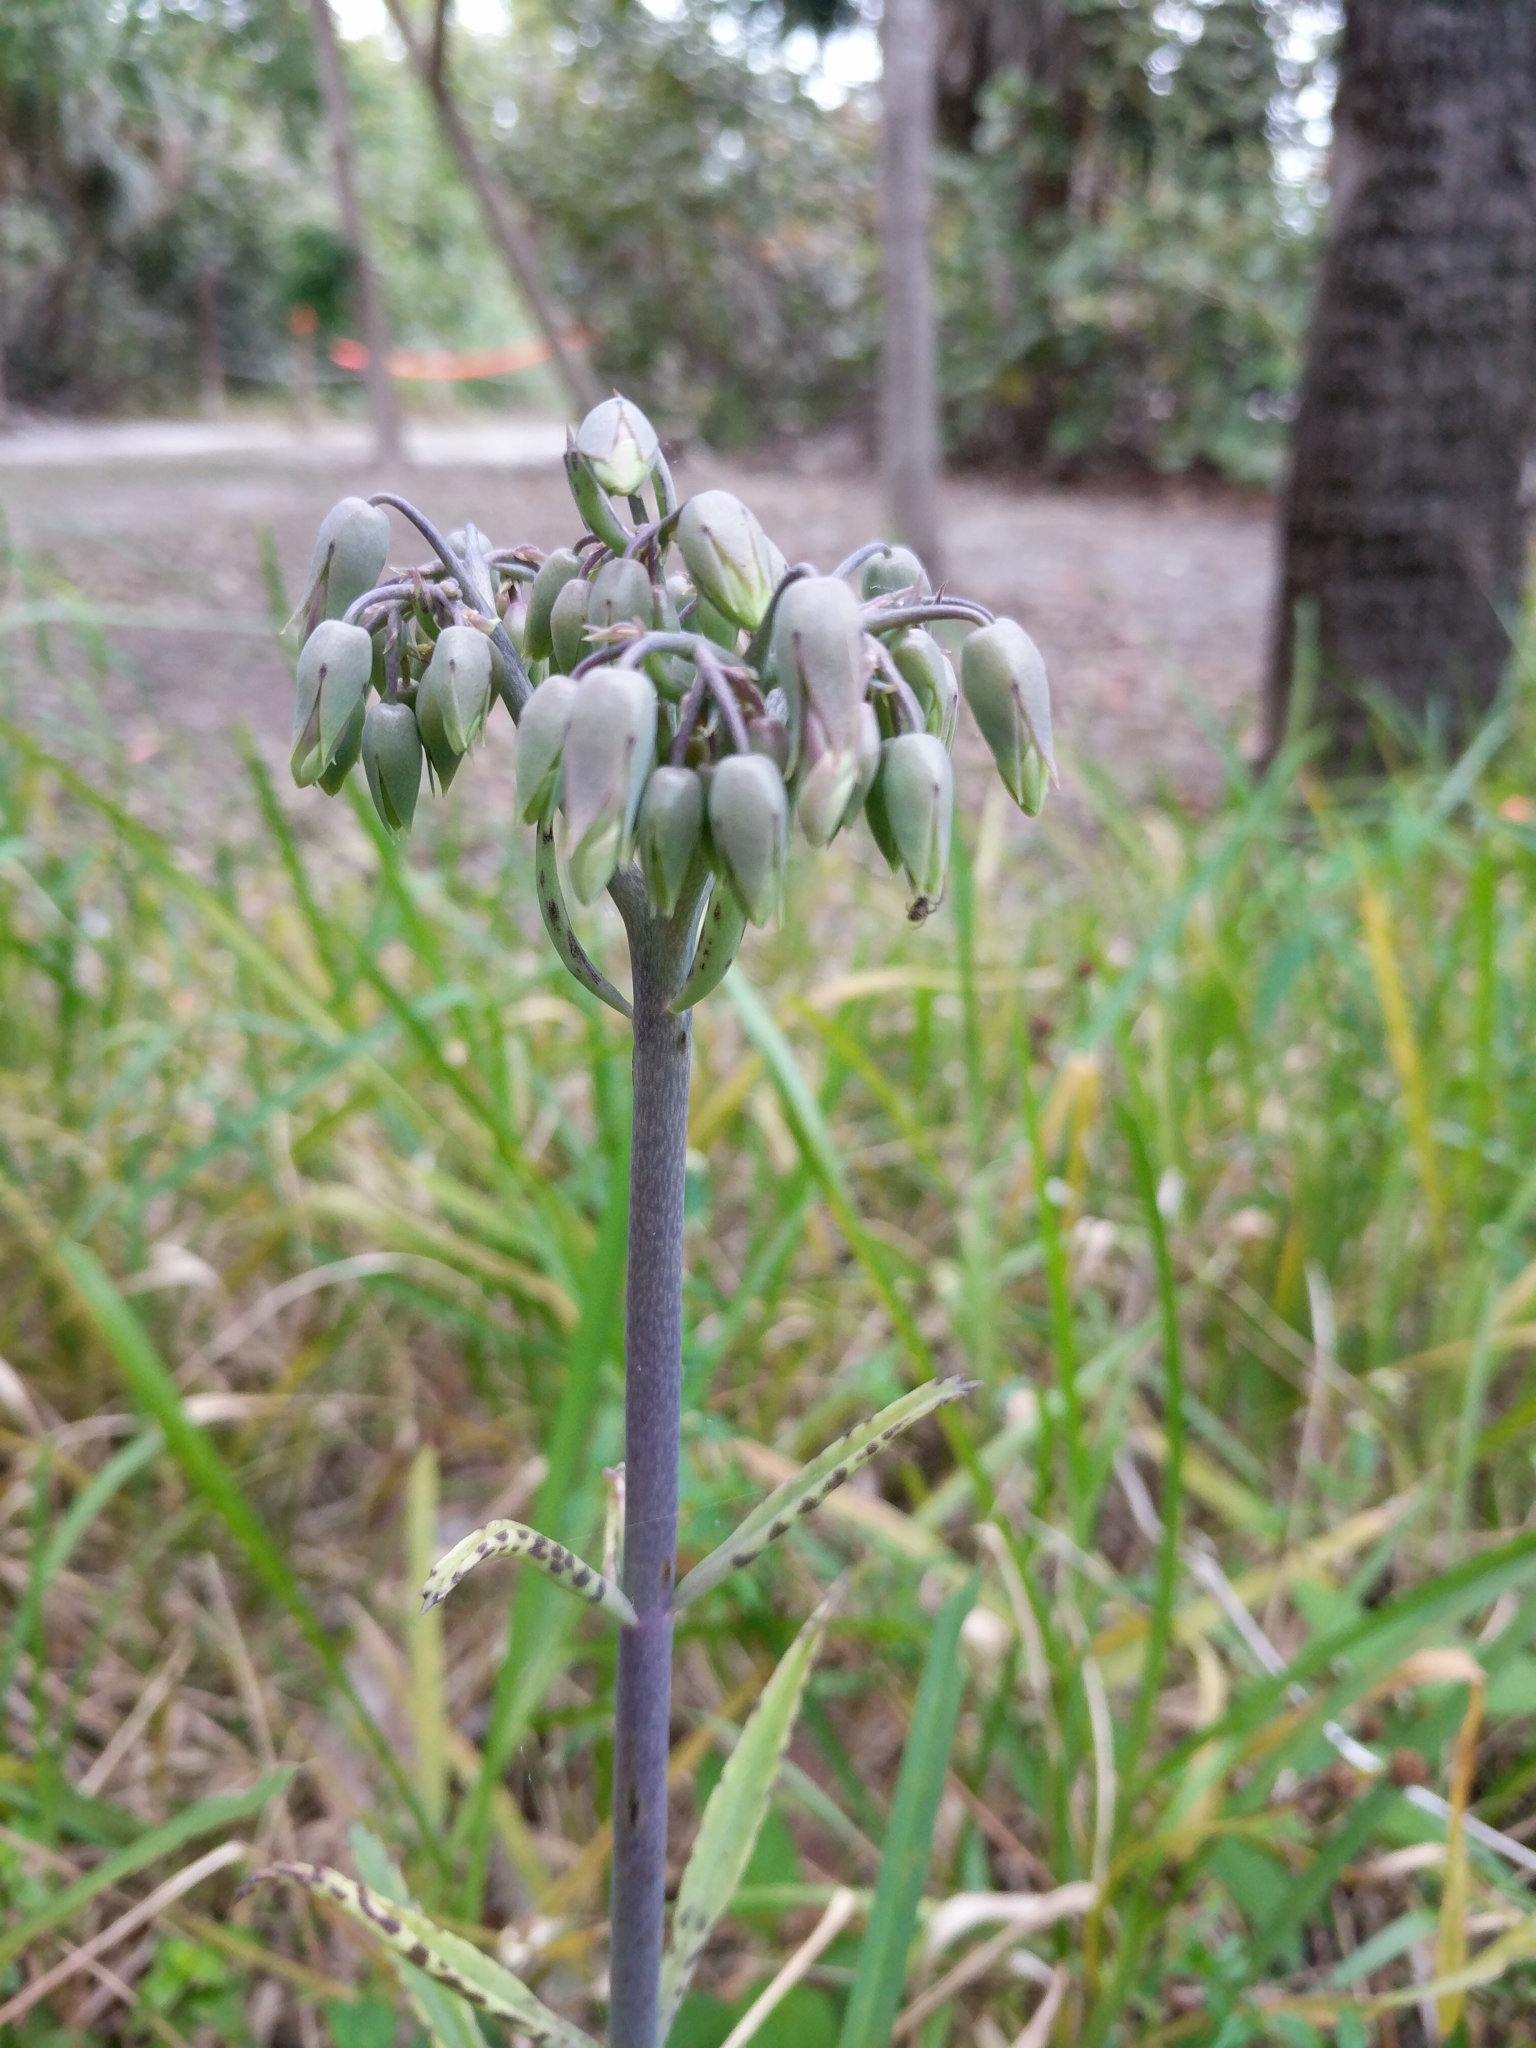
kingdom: Plantae
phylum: Tracheophyta
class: Magnoliopsida
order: Saxifragales
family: Crassulaceae
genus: Kalanchoe
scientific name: Kalanchoe houghtonii
